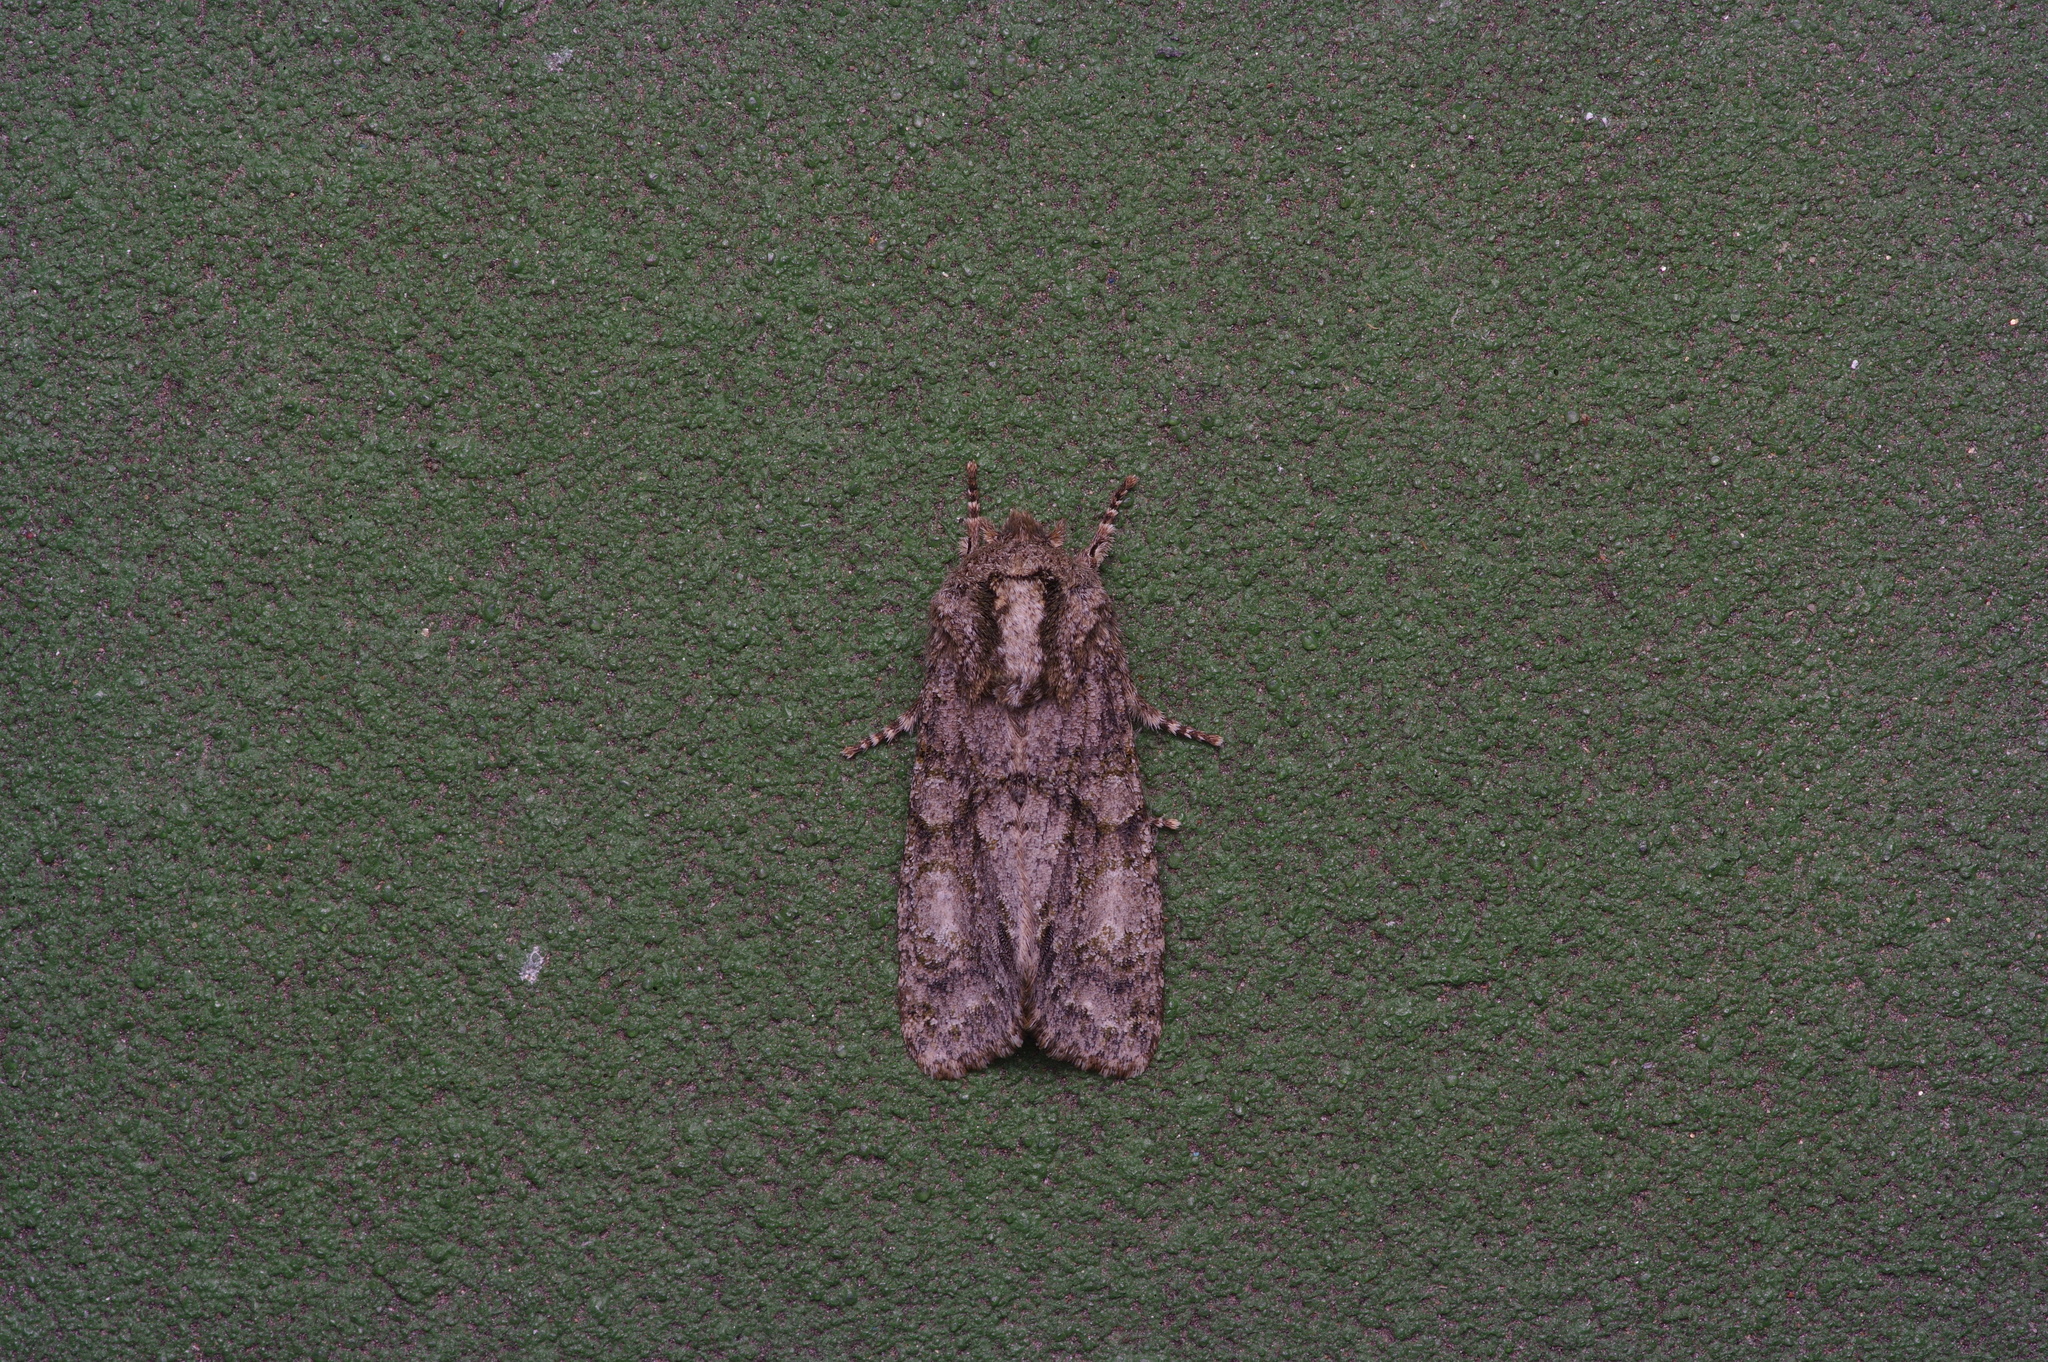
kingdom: Animalia
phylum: Arthropoda
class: Insecta
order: Lepidoptera
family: Noctuidae
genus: Psaphida
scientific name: Psaphida grotei
